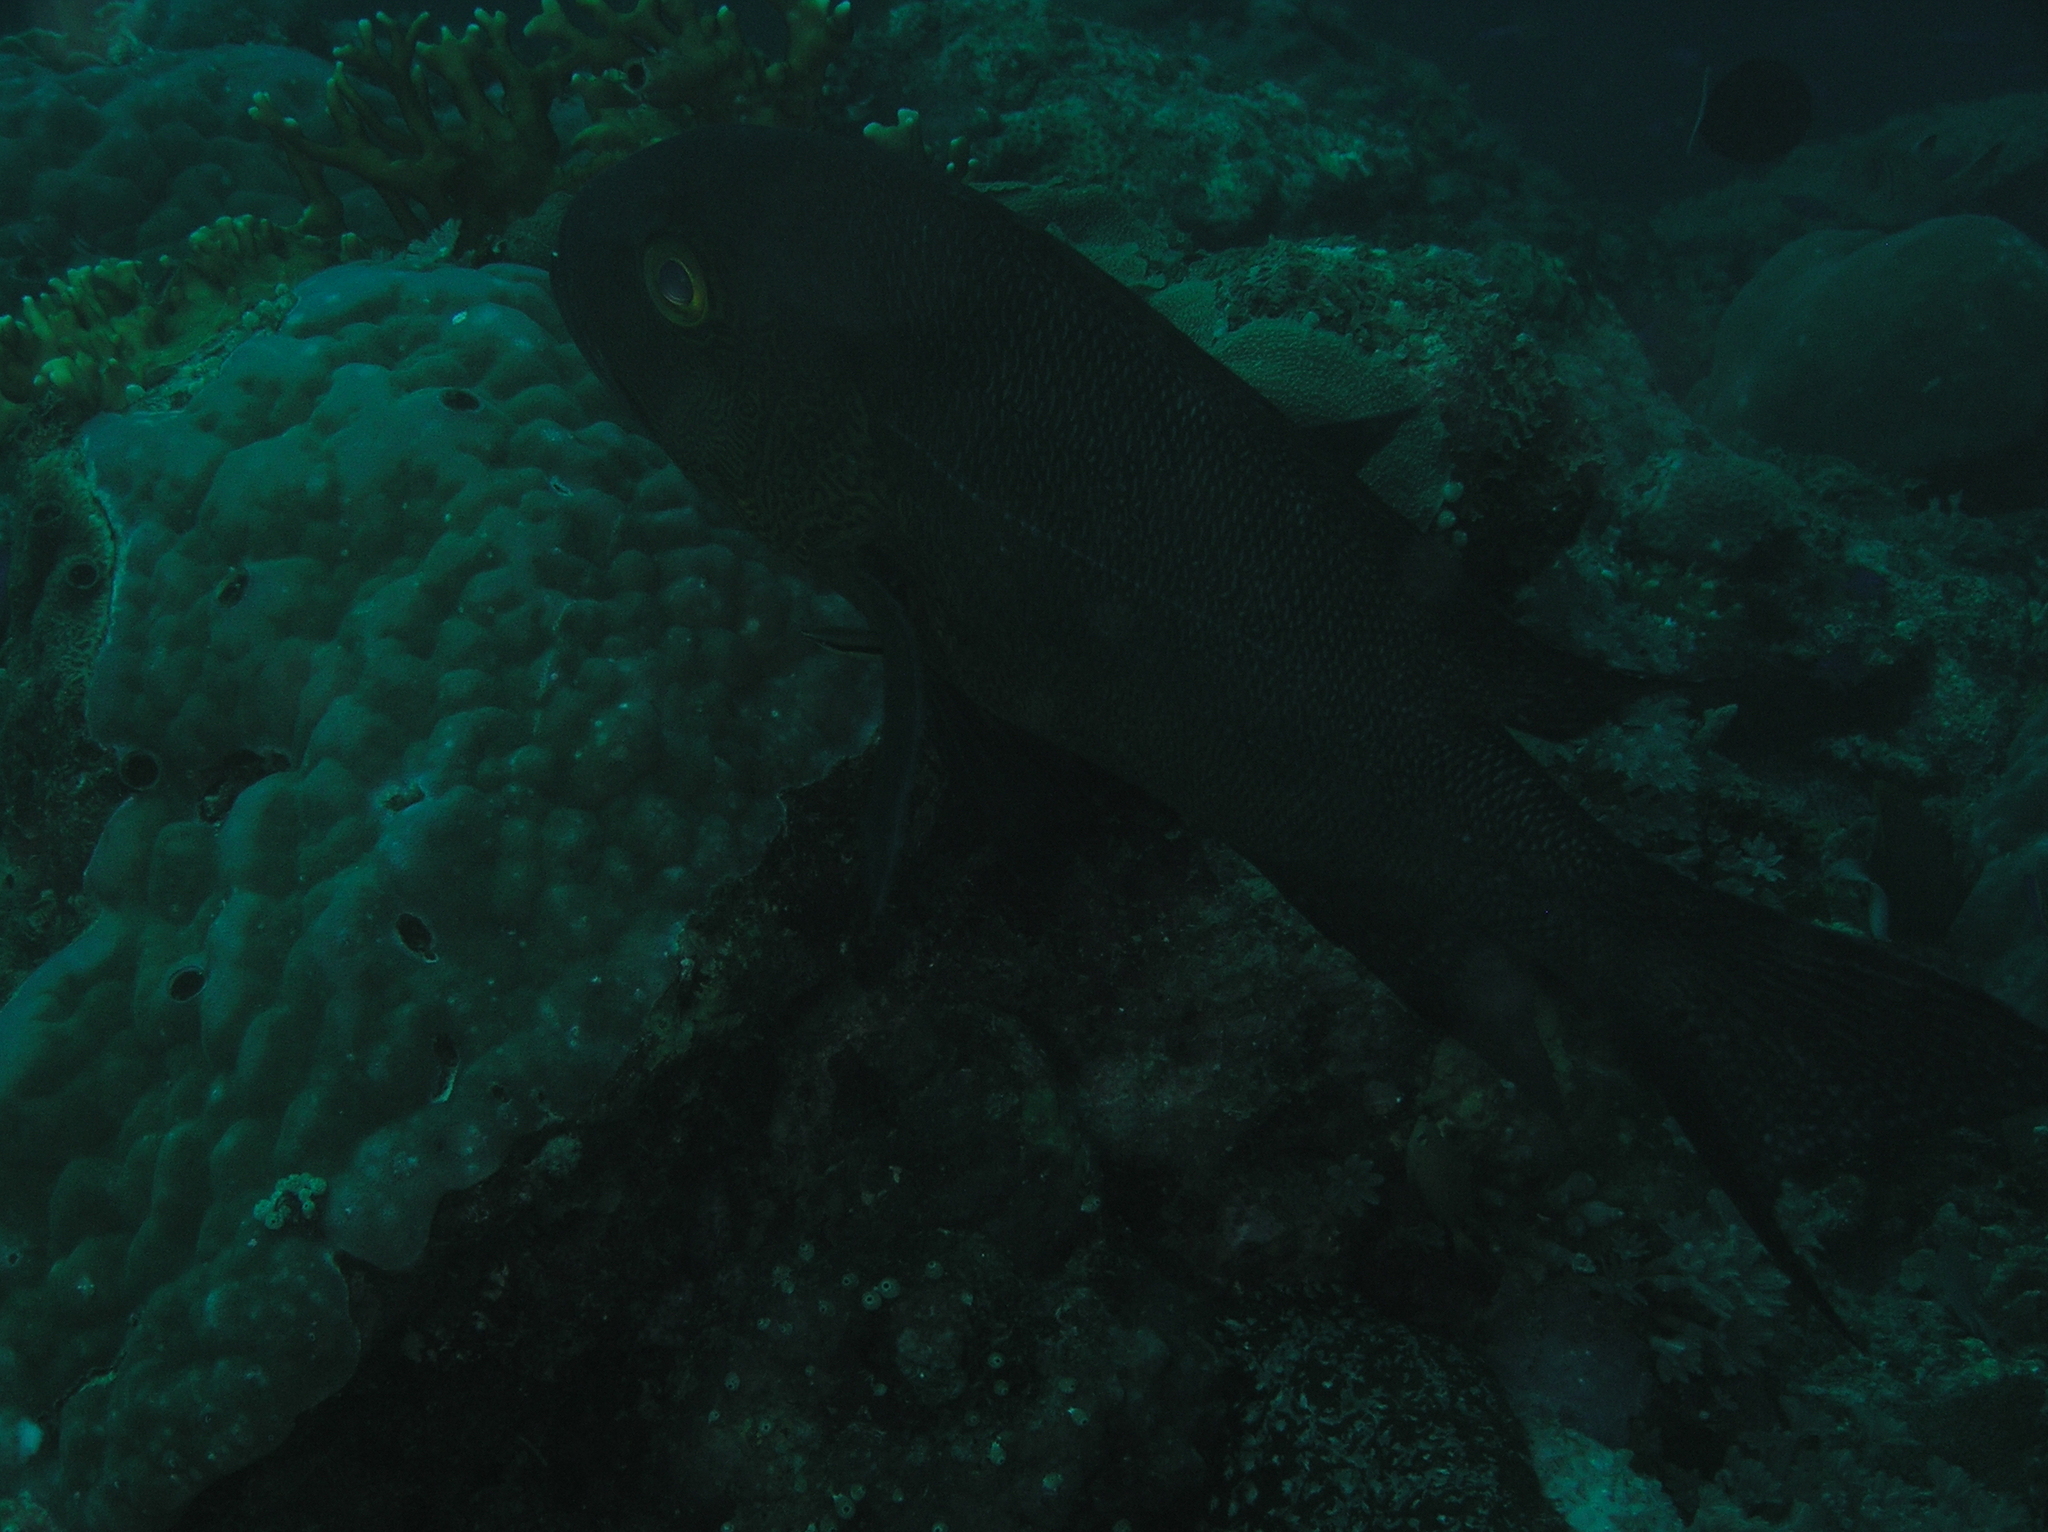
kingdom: Animalia
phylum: Chordata
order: Perciformes
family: Lutjanidae
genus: Macolor
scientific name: Macolor macularis
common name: Midnight snapper
